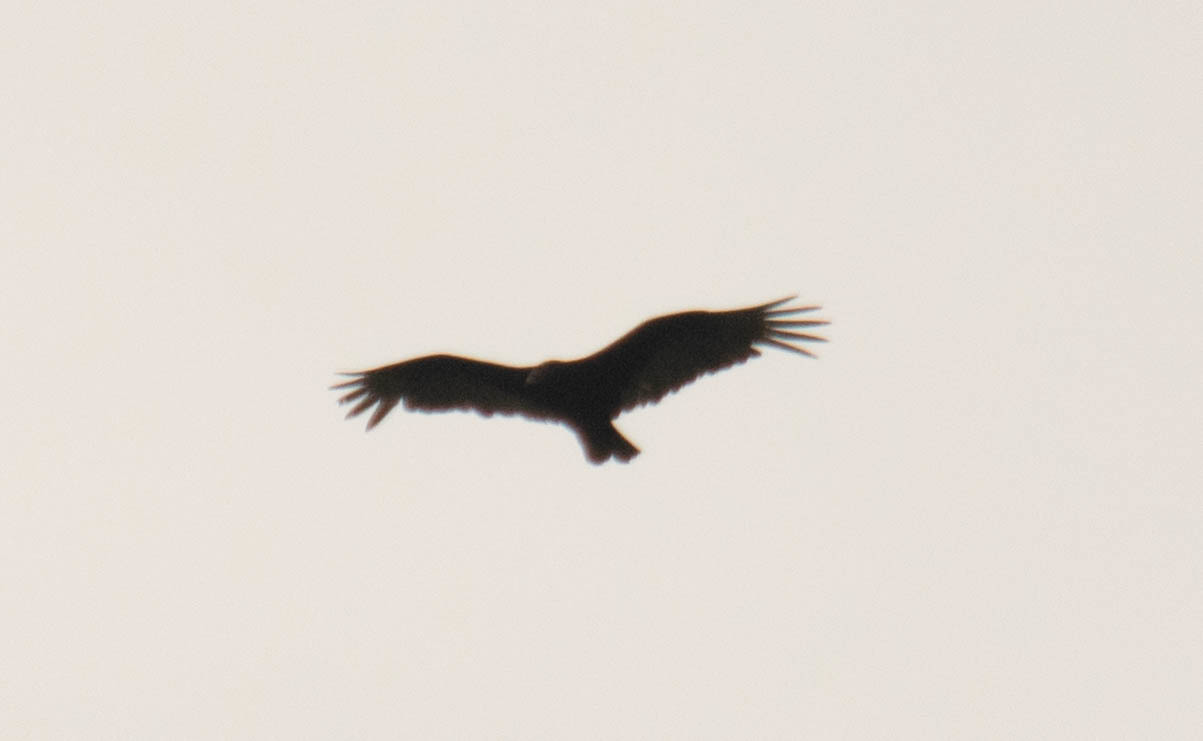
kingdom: Animalia
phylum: Chordata
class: Aves
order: Accipitriformes
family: Cathartidae
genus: Cathartes
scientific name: Cathartes aura
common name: Turkey vulture
